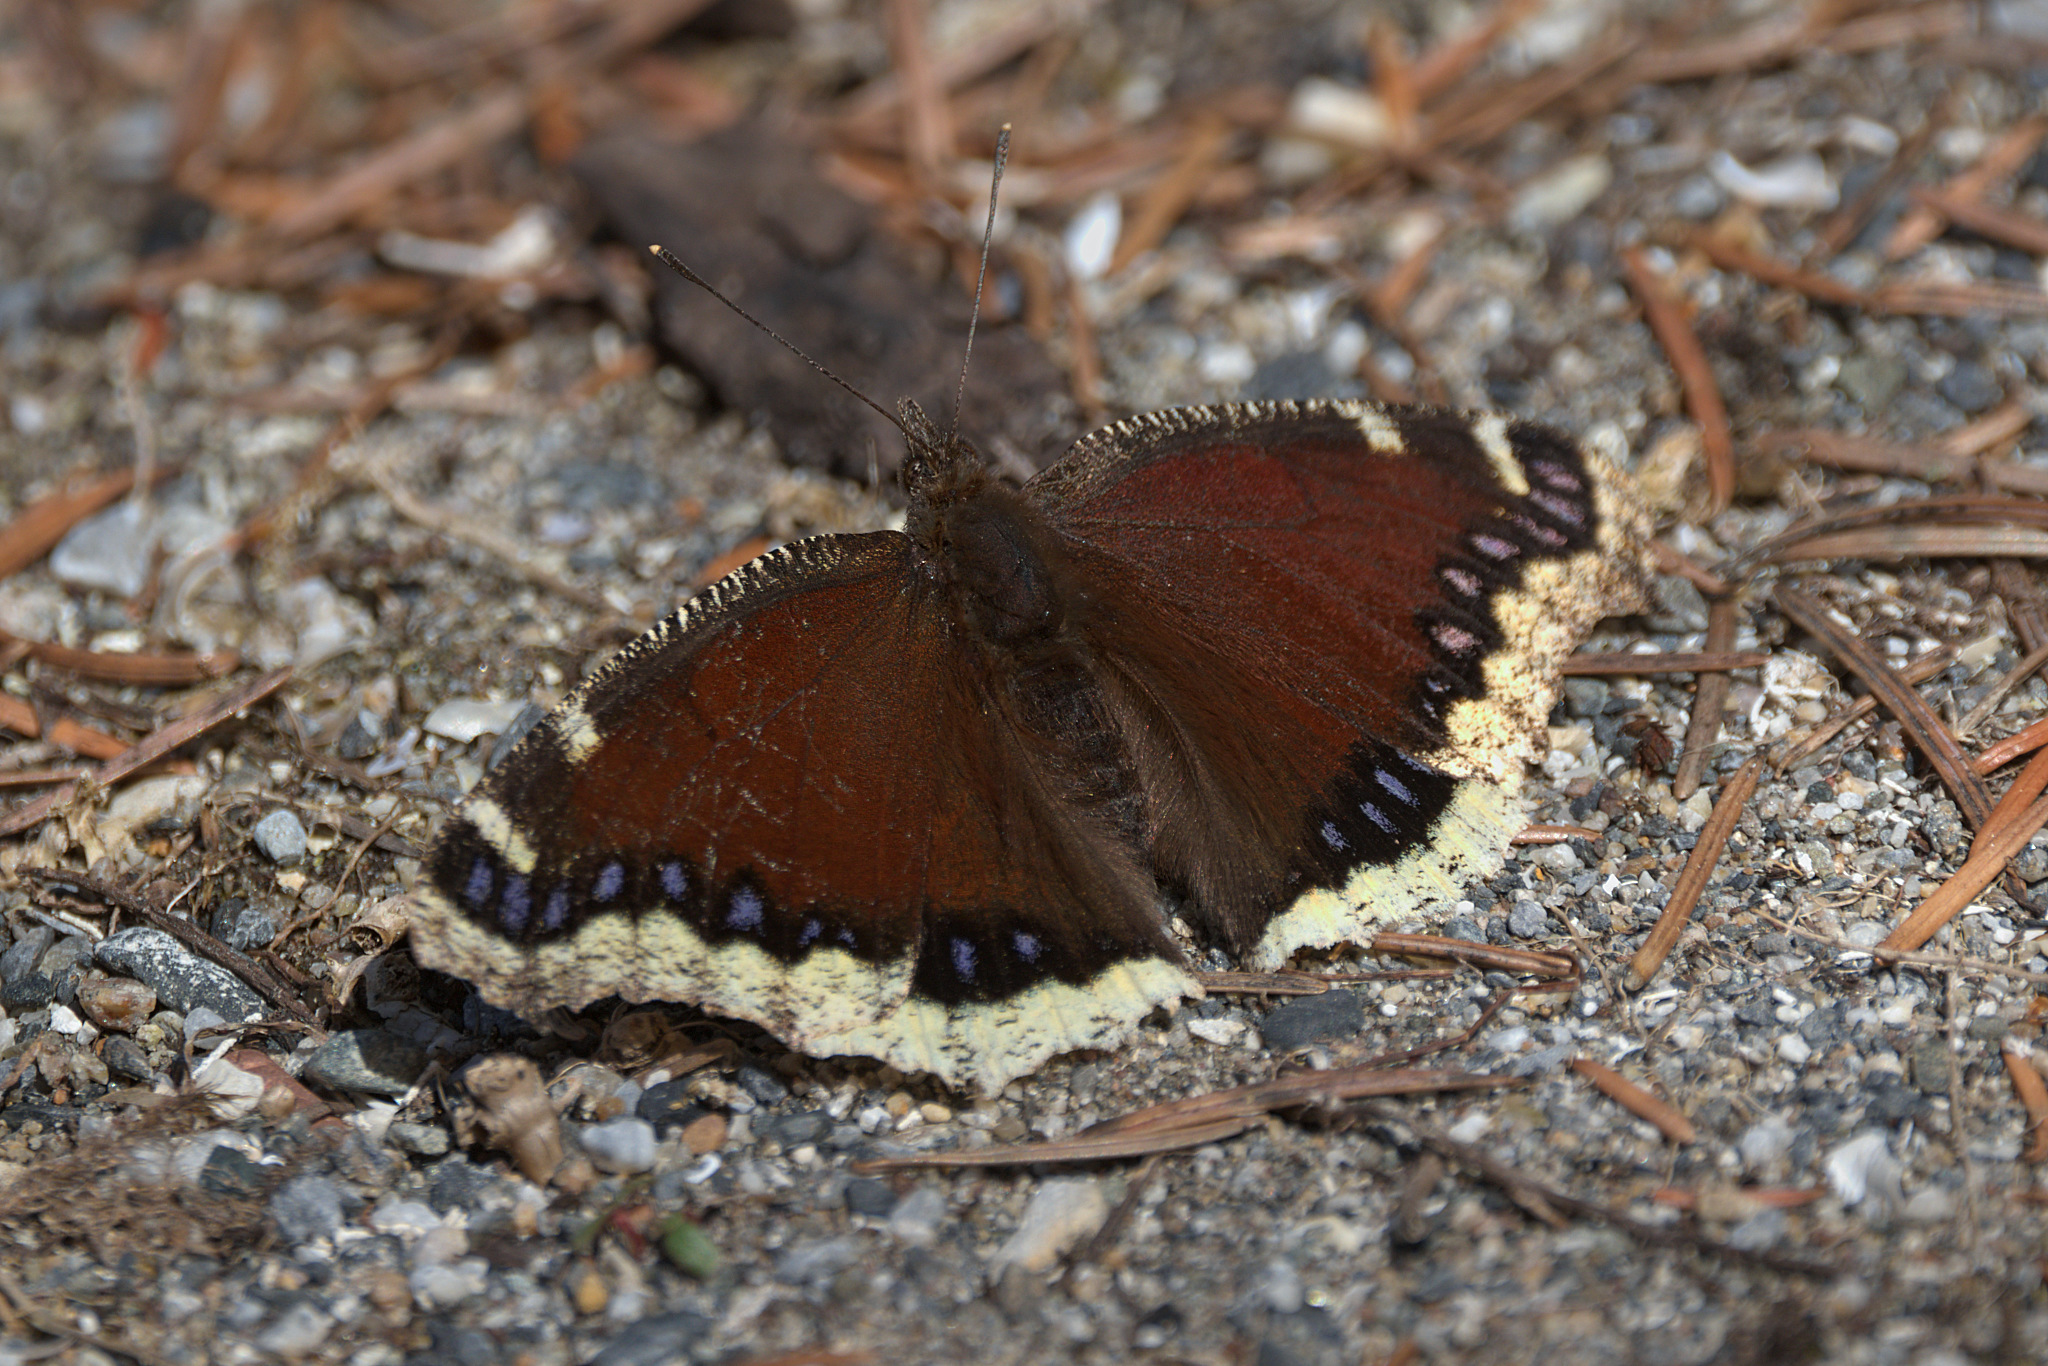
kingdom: Animalia
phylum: Arthropoda
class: Insecta
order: Lepidoptera
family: Nymphalidae
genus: Nymphalis
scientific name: Nymphalis antiopa
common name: Camberwell beauty
